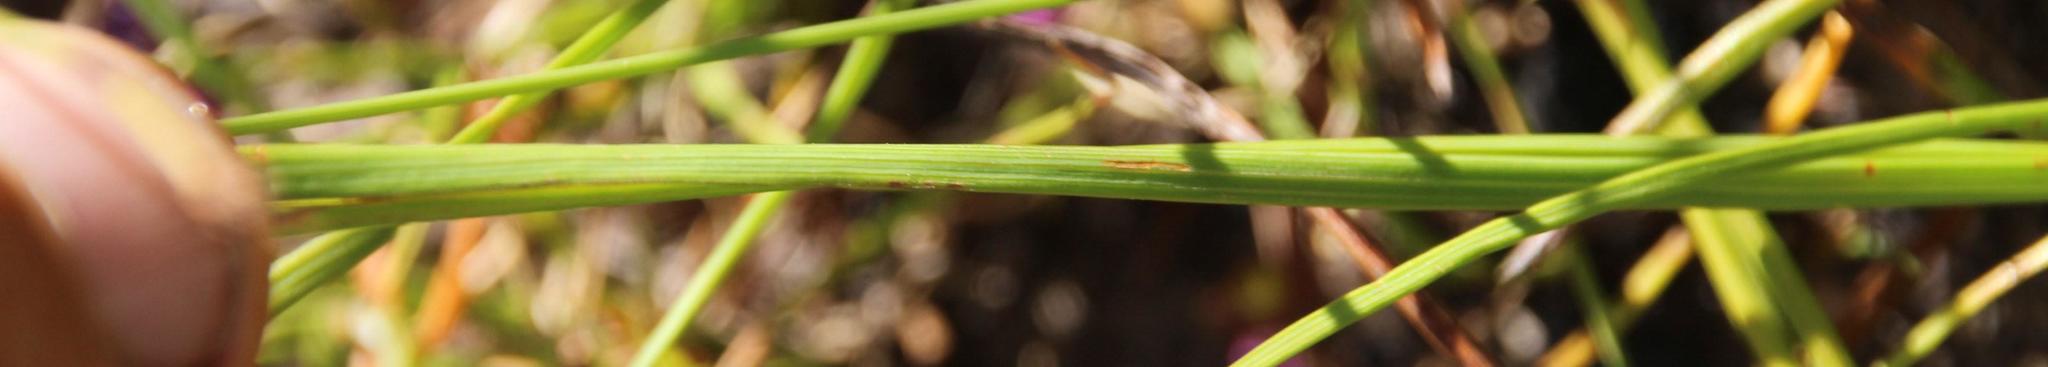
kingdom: Plantae
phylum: Tracheophyta
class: Liliopsida
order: Asparagales
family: Iridaceae
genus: Micranthus
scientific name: Micranthus alopecuroides
